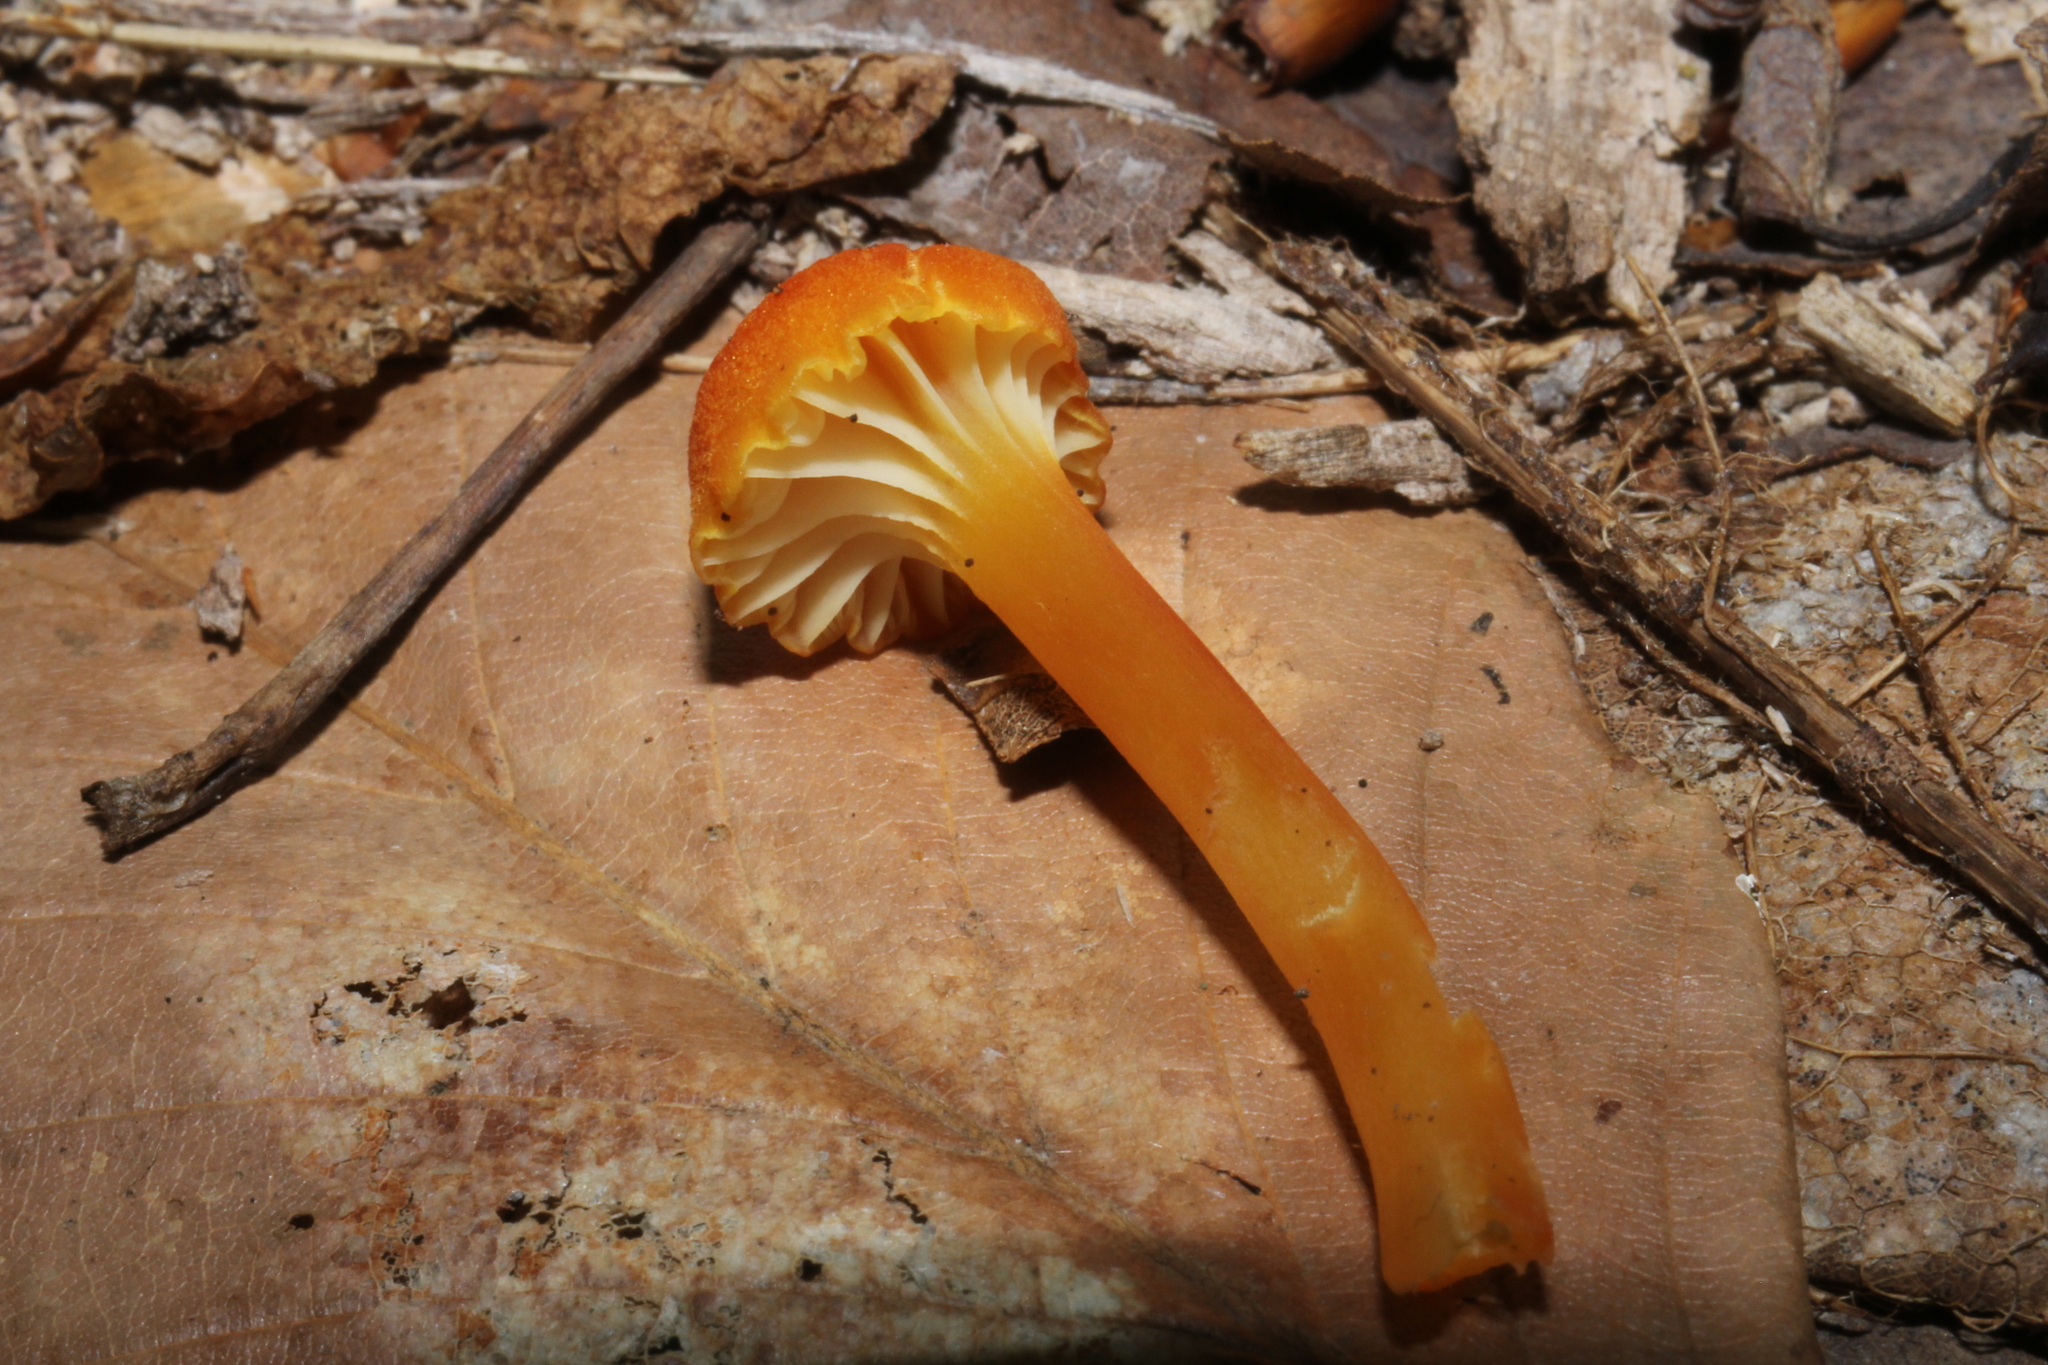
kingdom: Fungi
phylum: Basidiomycota
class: Agaricomycetes
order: Agaricales
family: Hygrophoraceae
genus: Hygrocybe
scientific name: Hygrocybe cantharellus
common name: Goblet waxcap
